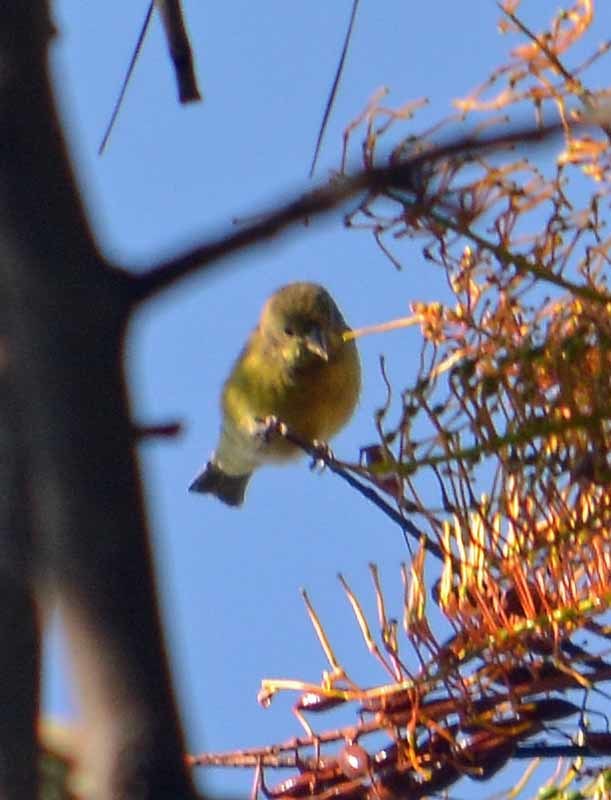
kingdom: Animalia
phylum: Chordata
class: Aves
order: Passeriformes
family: Fringillidae
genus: Spinus
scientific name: Spinus psaltria
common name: Lesser goldfinch
